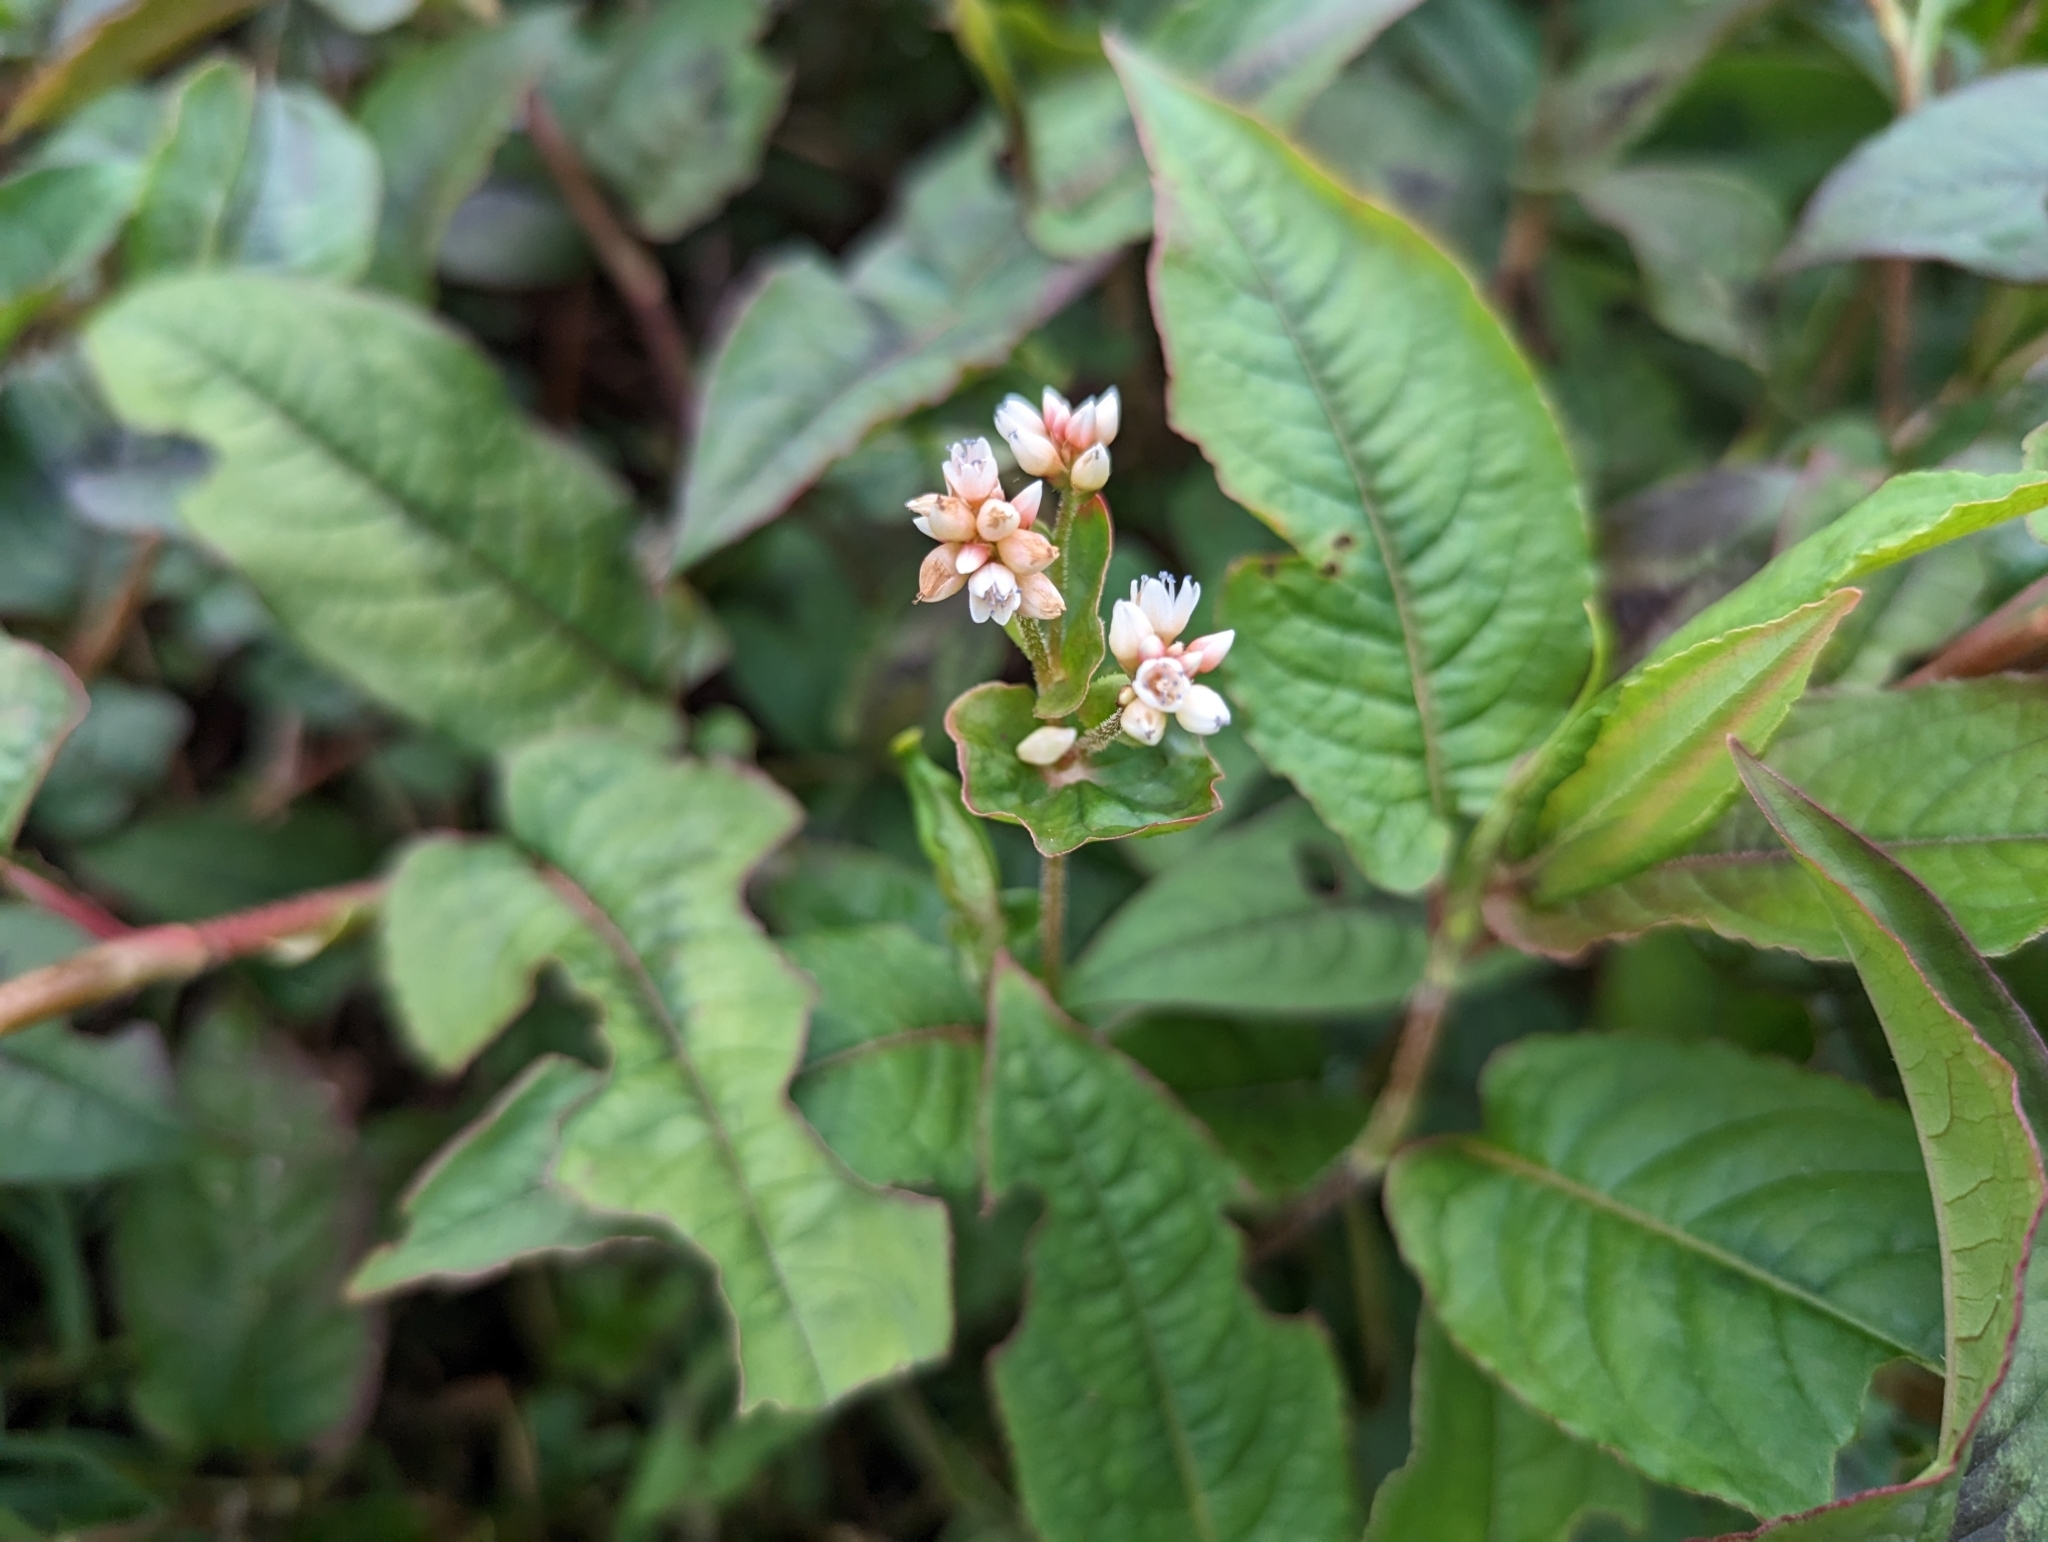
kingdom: Plantae
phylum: Tracheophyta
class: Magnoliopsida
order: Caryophyllales
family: Polygonaceae
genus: Persicaria
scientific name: Persicaria chinensis
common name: Chinese knotweed
